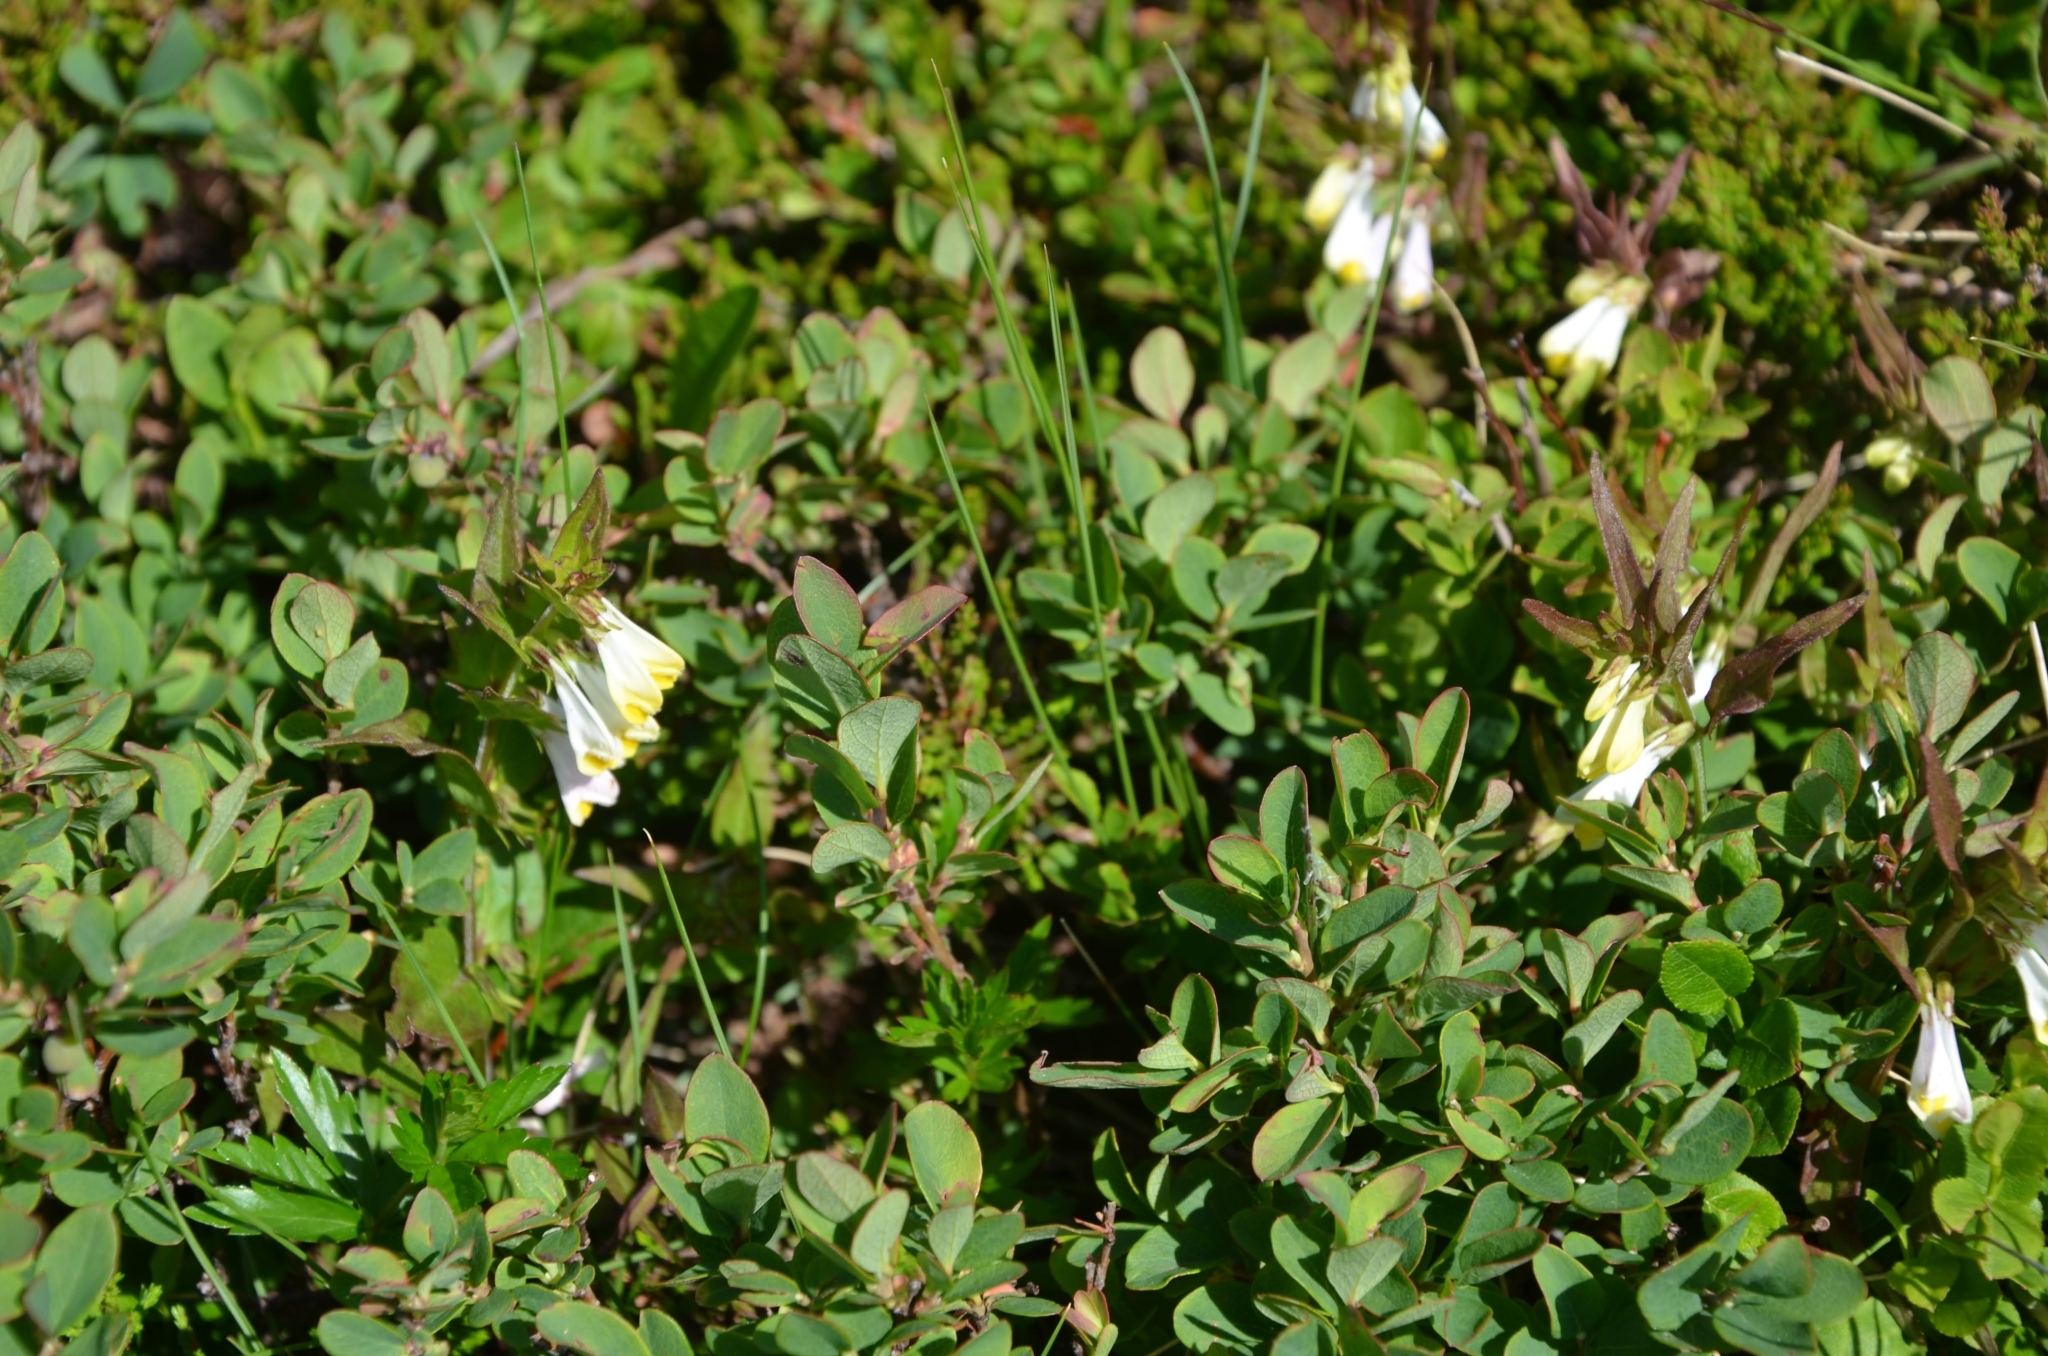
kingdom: Plantae
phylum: Tracheophyta
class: Magnoliopsida
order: Lamiales
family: Orobanchaceae
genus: Melampyrum
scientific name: Melampyrum pratense
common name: Common cow-wheat
